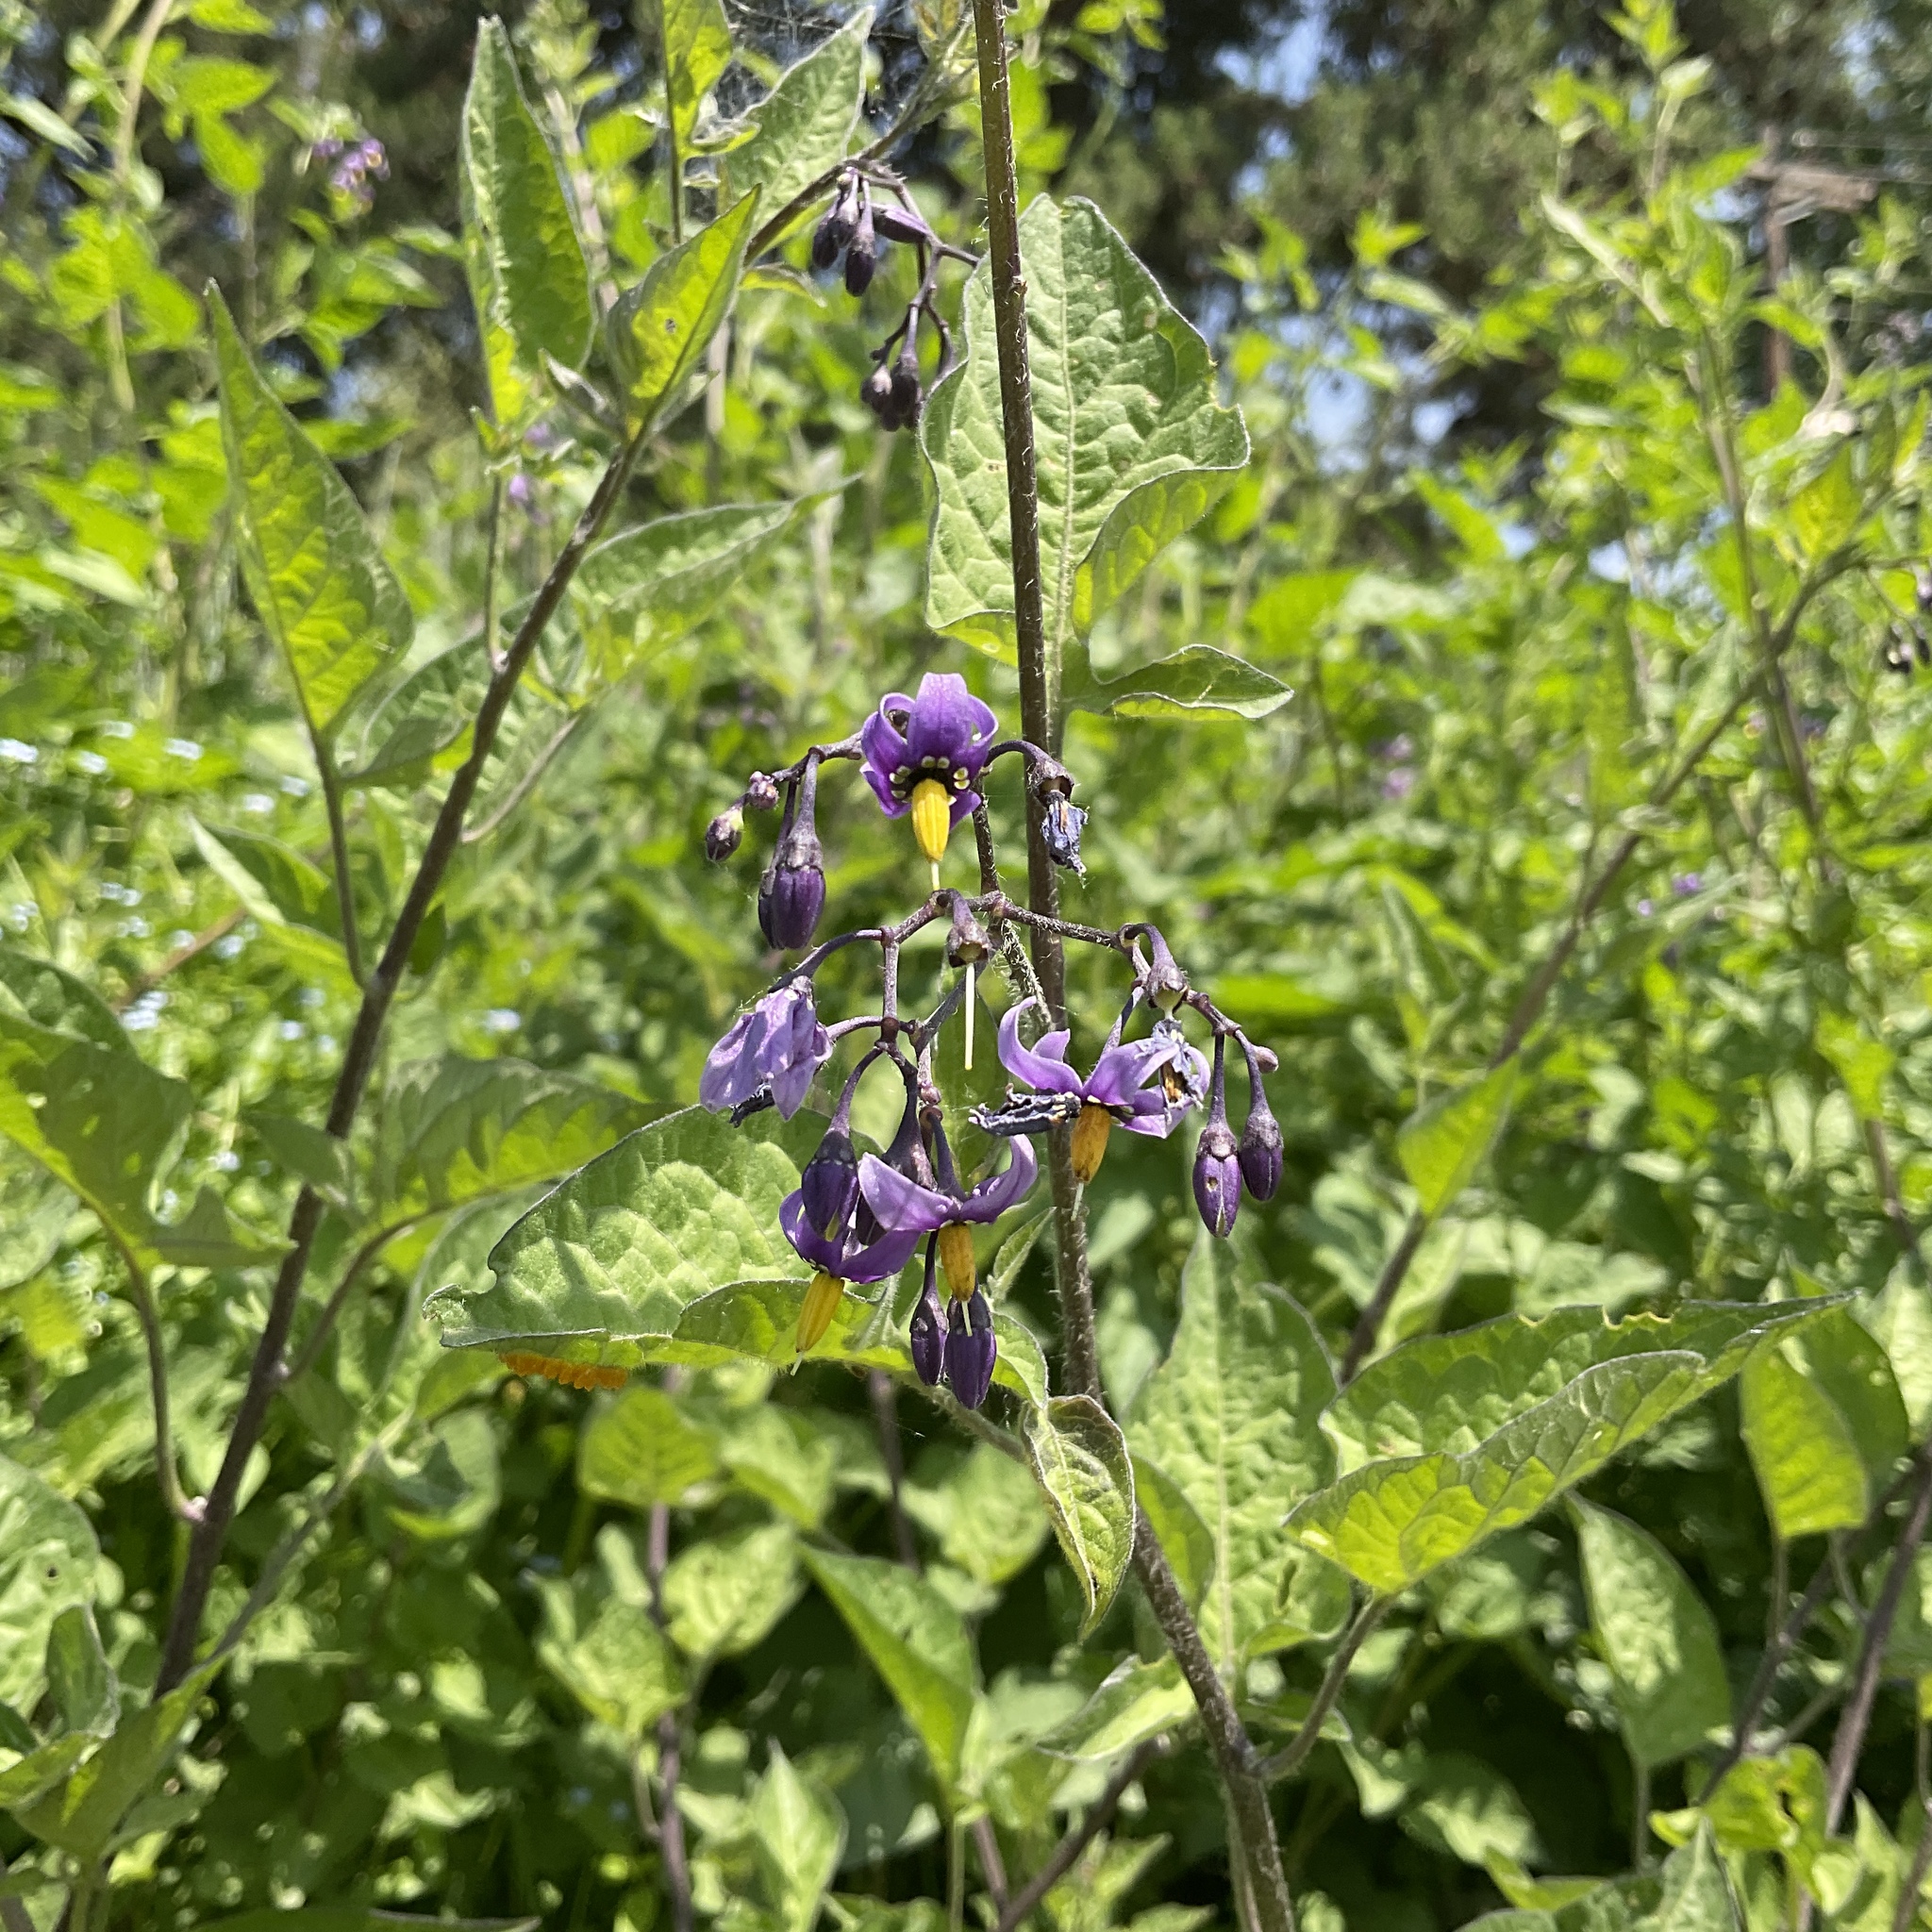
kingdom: Plantae
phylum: Tracheophyta
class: Magnoliopsida
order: Solanales
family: Solanaceae
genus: Solanum
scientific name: Solanum dulcamara
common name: Climbing nightshade
